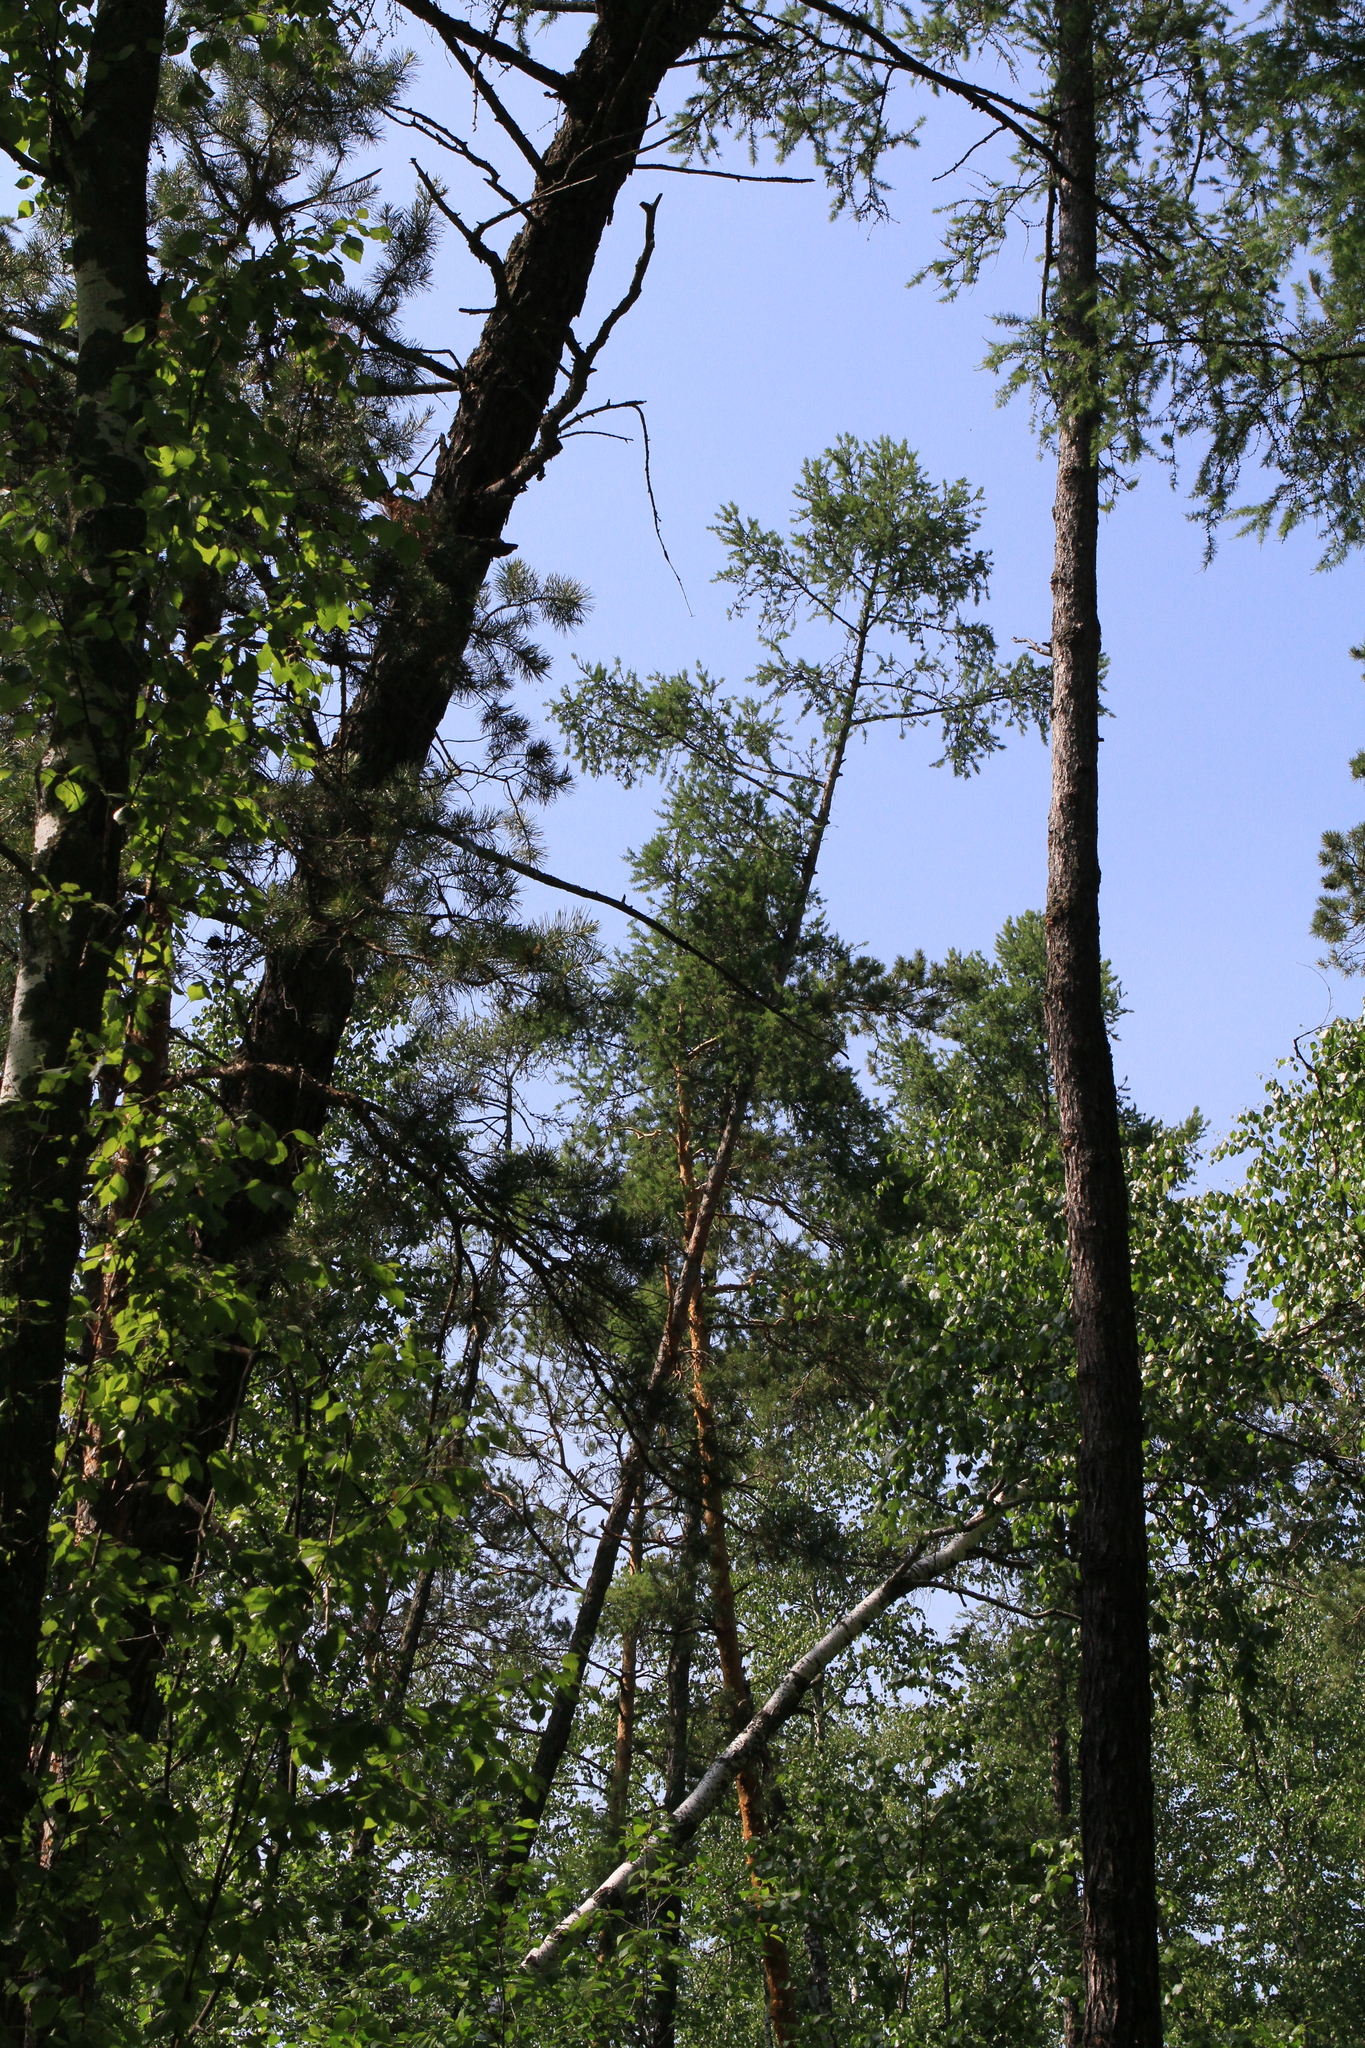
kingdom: Plantae
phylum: Tracheophyta
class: Pinopsida
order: Pinales
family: Pinaceae
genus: Larix
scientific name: Larix sibirica
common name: Siberian larch
